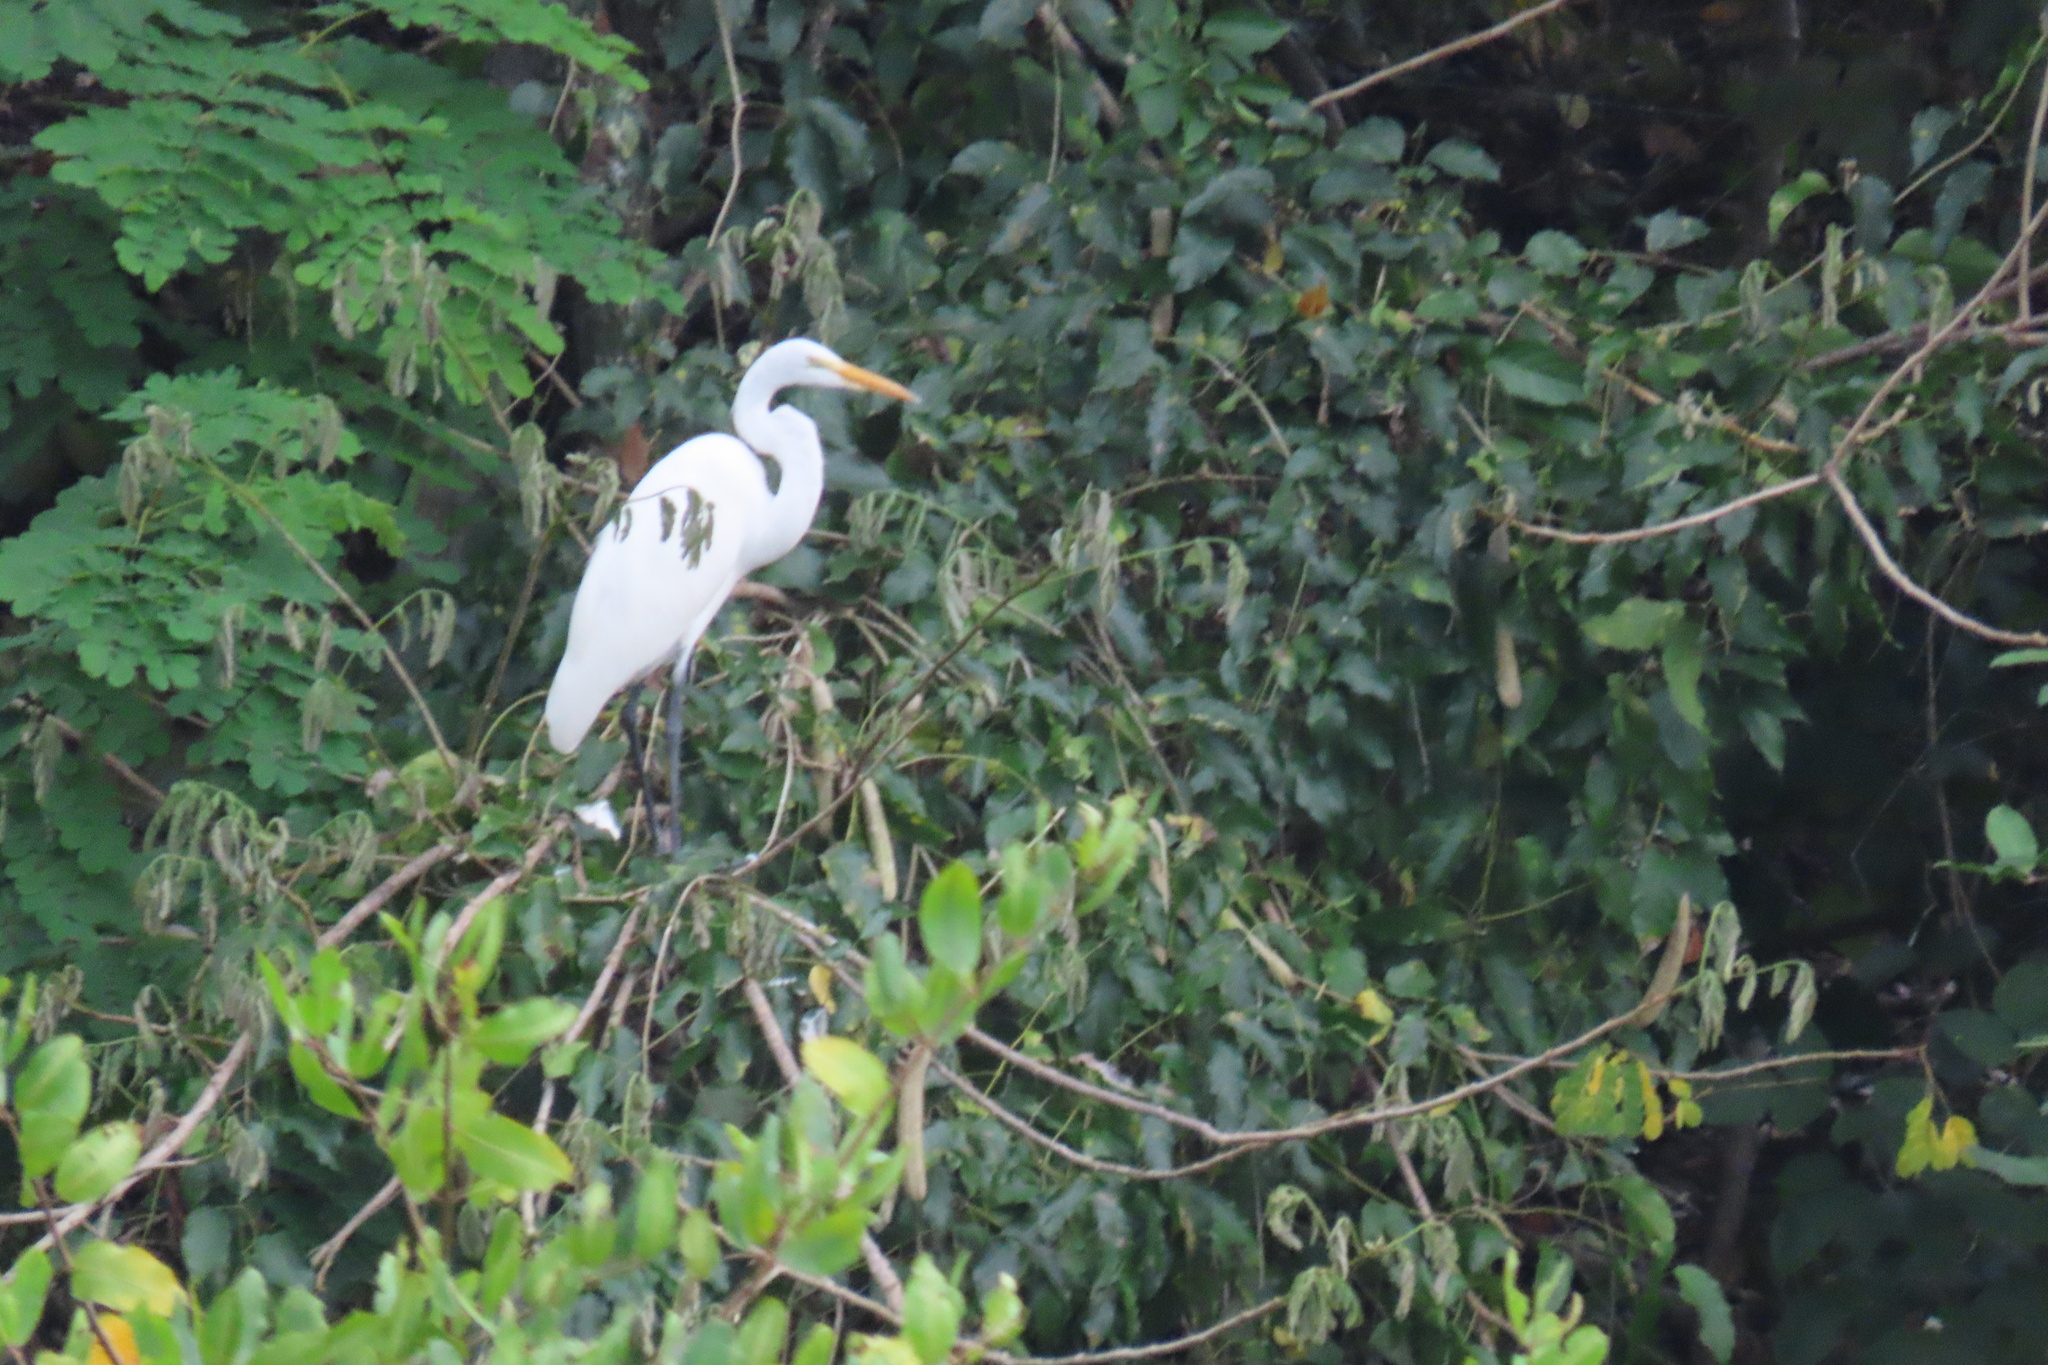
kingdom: Animalia
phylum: Chordata
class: Aves
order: Pelecaniformes
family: Ardeidae
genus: Ardea
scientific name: Ardea alba
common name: Great egret
